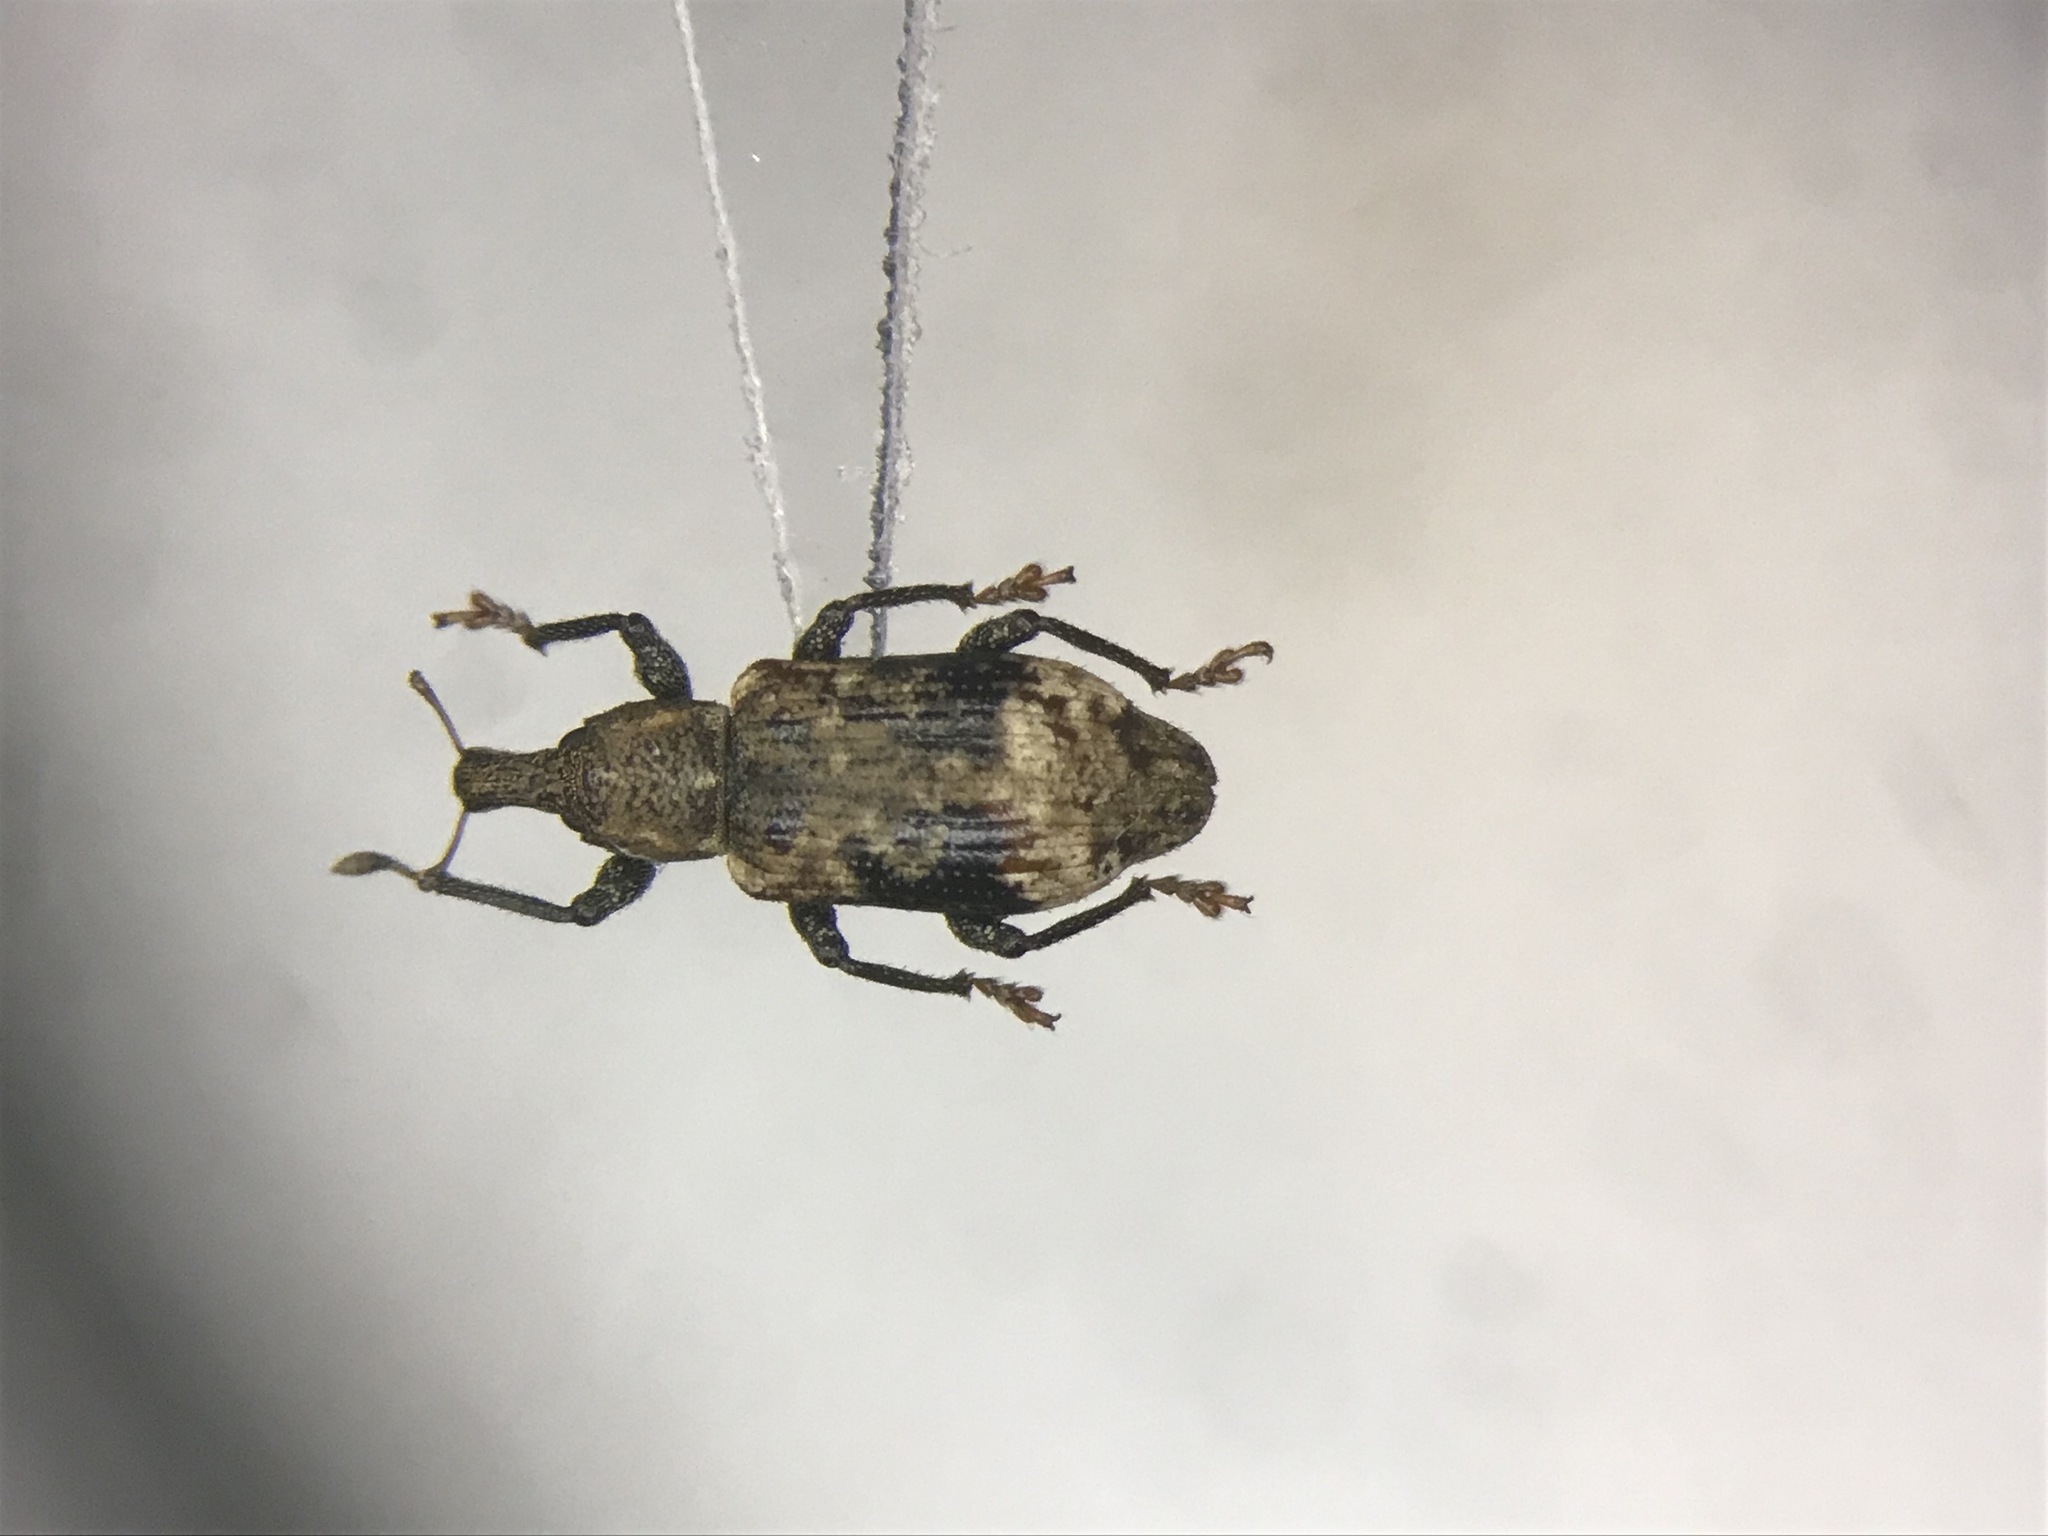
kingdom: Animalia
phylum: Arthropoda
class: Insecta
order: Coleoptera
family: Curculionidae
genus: Listroderes
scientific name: Listroderes delumbis
